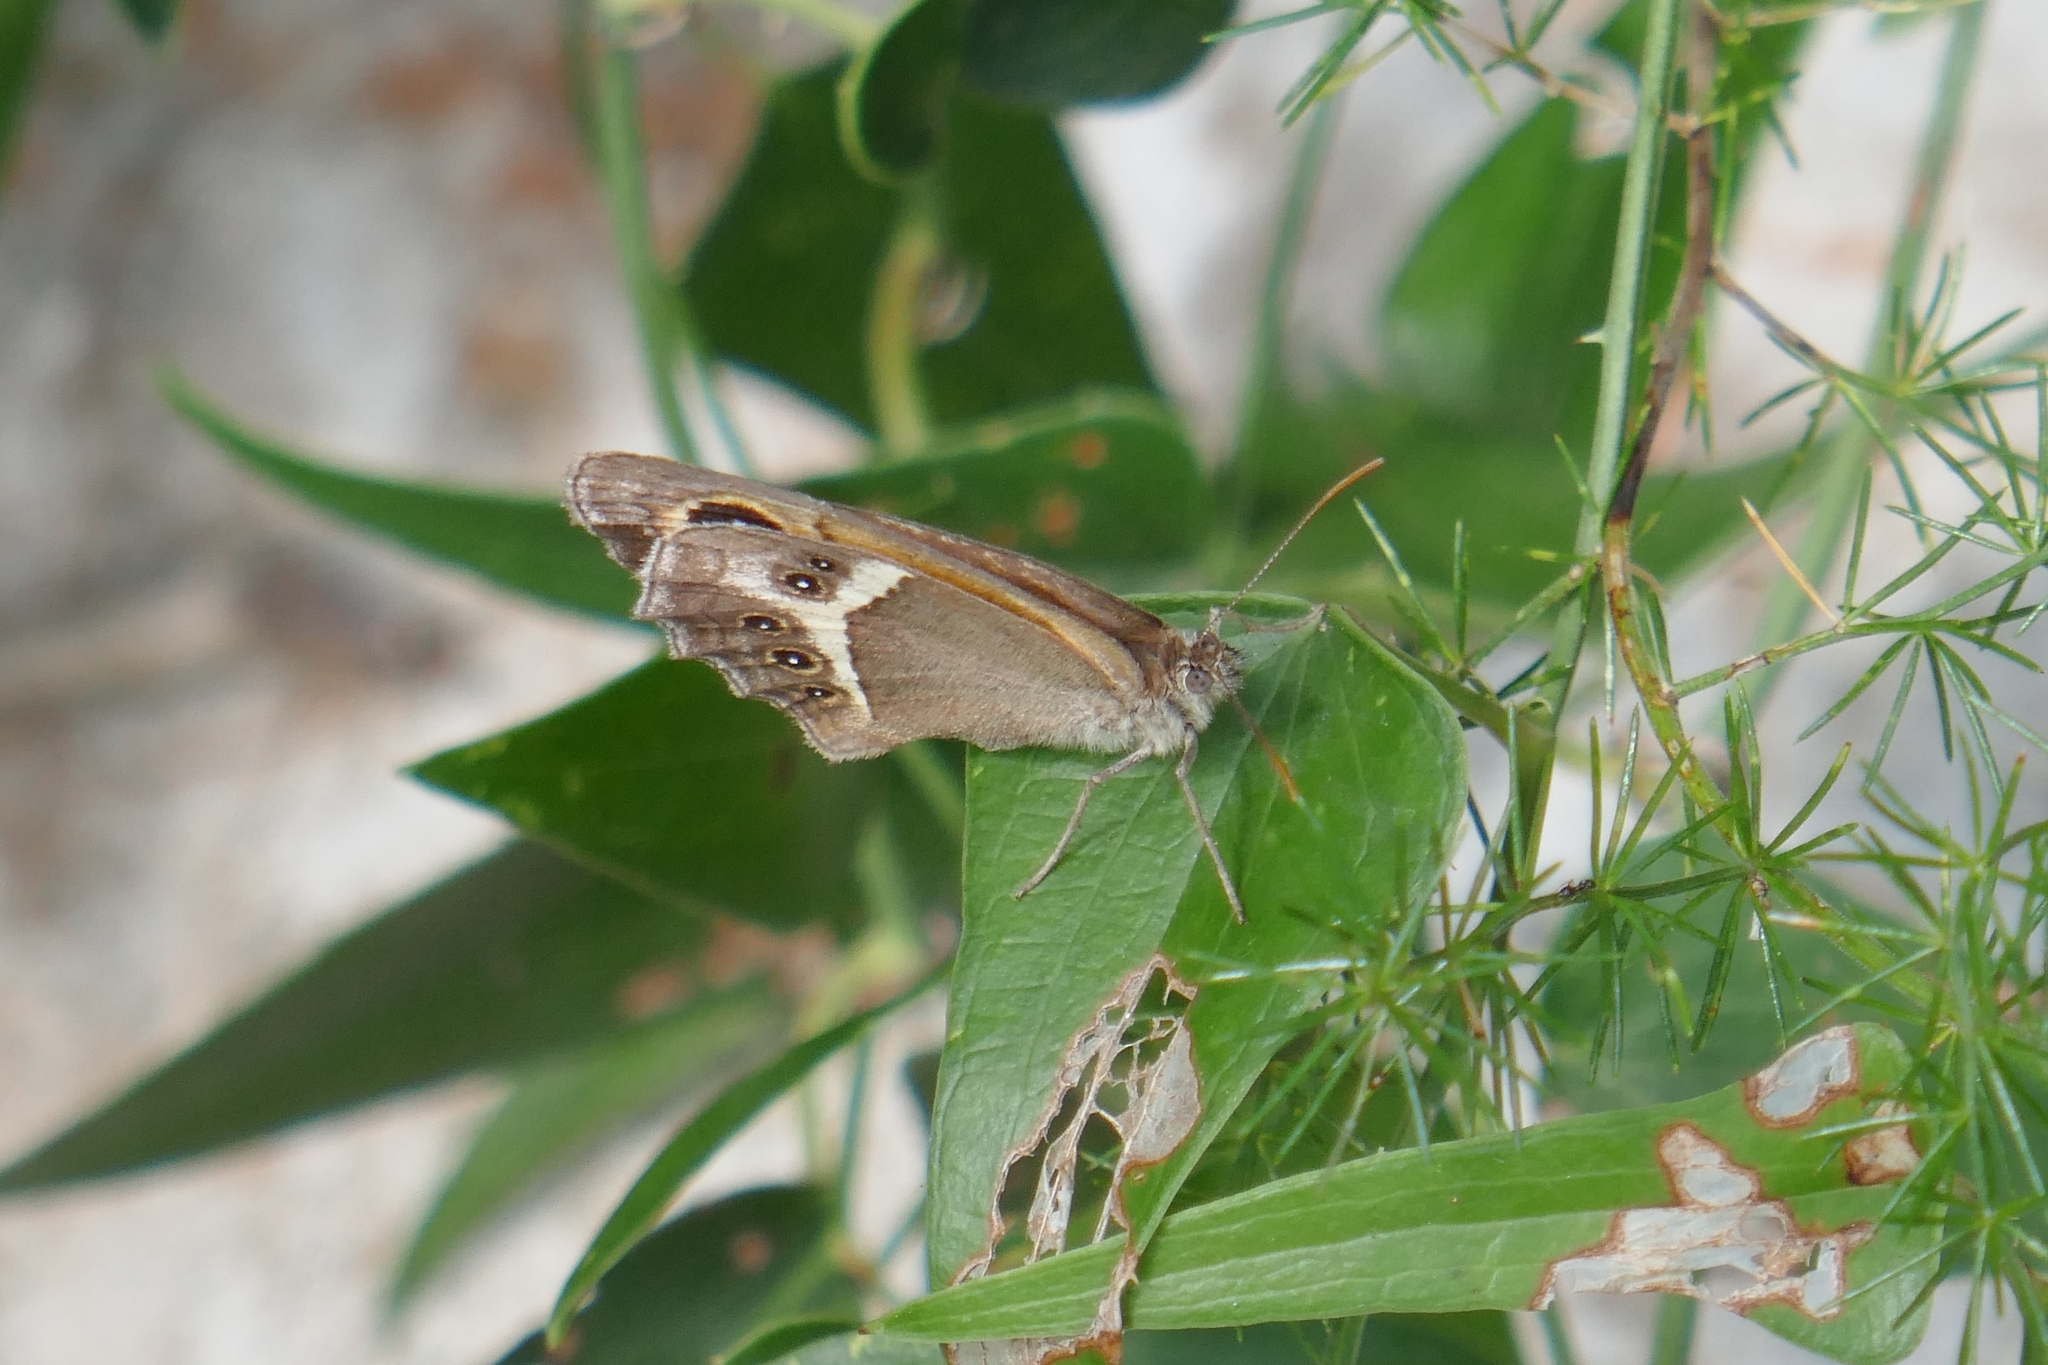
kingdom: Animalia
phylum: Arthropoda
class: Insecta
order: Lepidoptera
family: Nymphalidae
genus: Pyronia
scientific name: Pyronia bathseba
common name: Spanish gatekeeper
